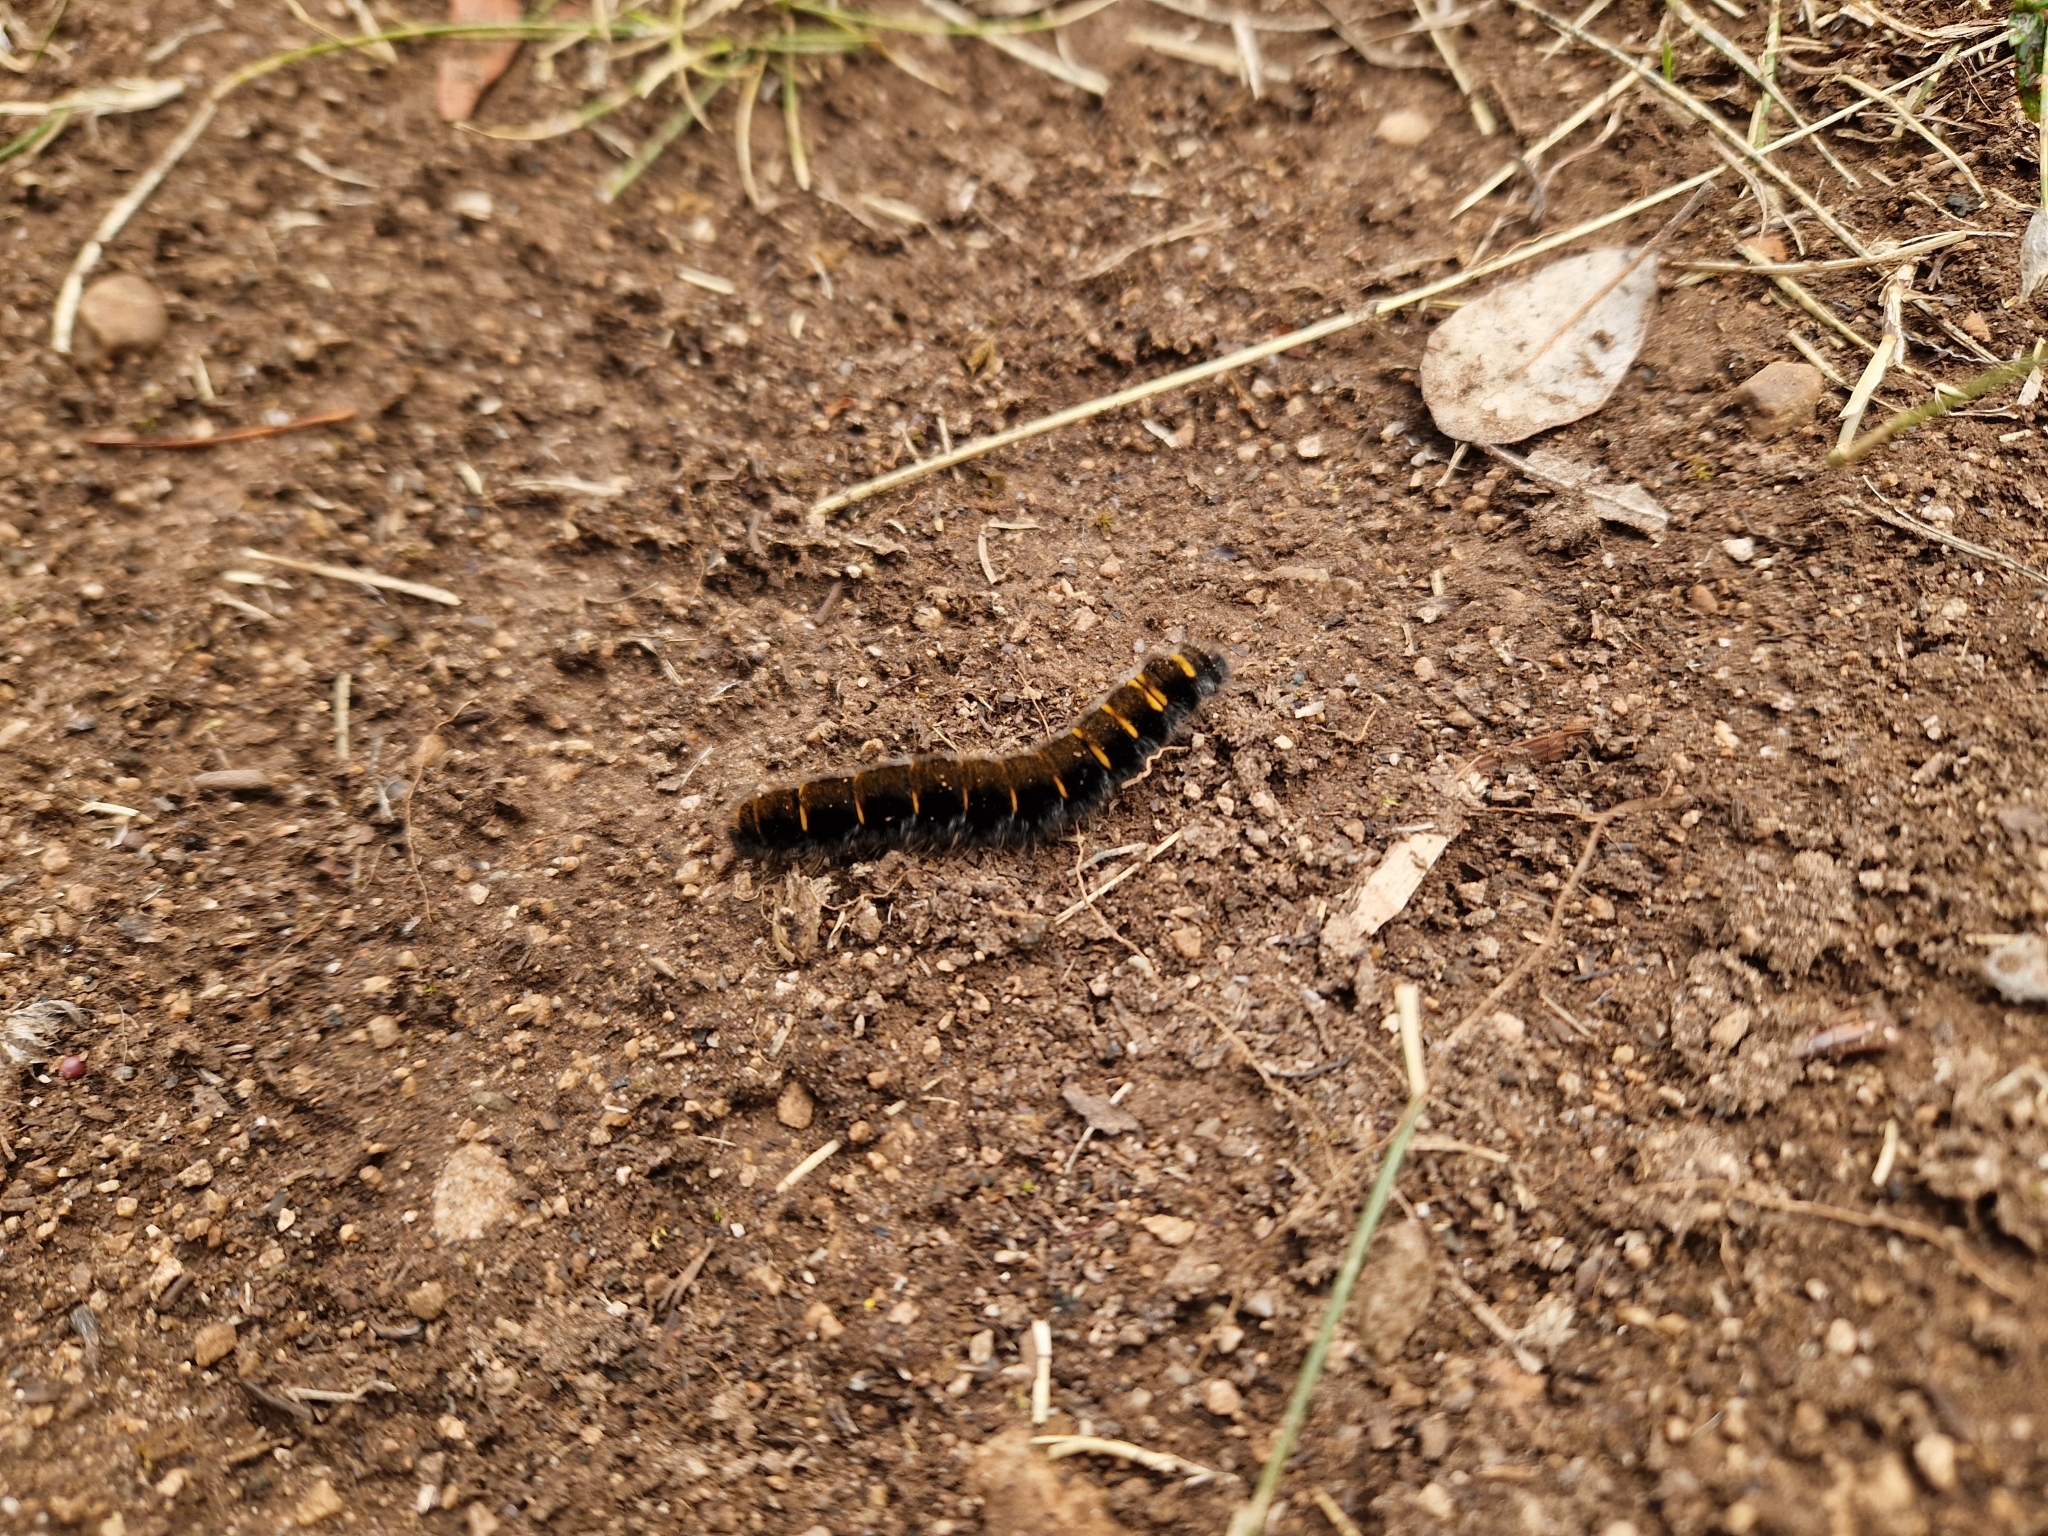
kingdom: Animalia
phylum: Arthropoda
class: Insecta
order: Lepidoptera
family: Lasiocampidae
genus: Macrothylacia
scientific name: Macrothylacia rubi
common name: Fox moth
